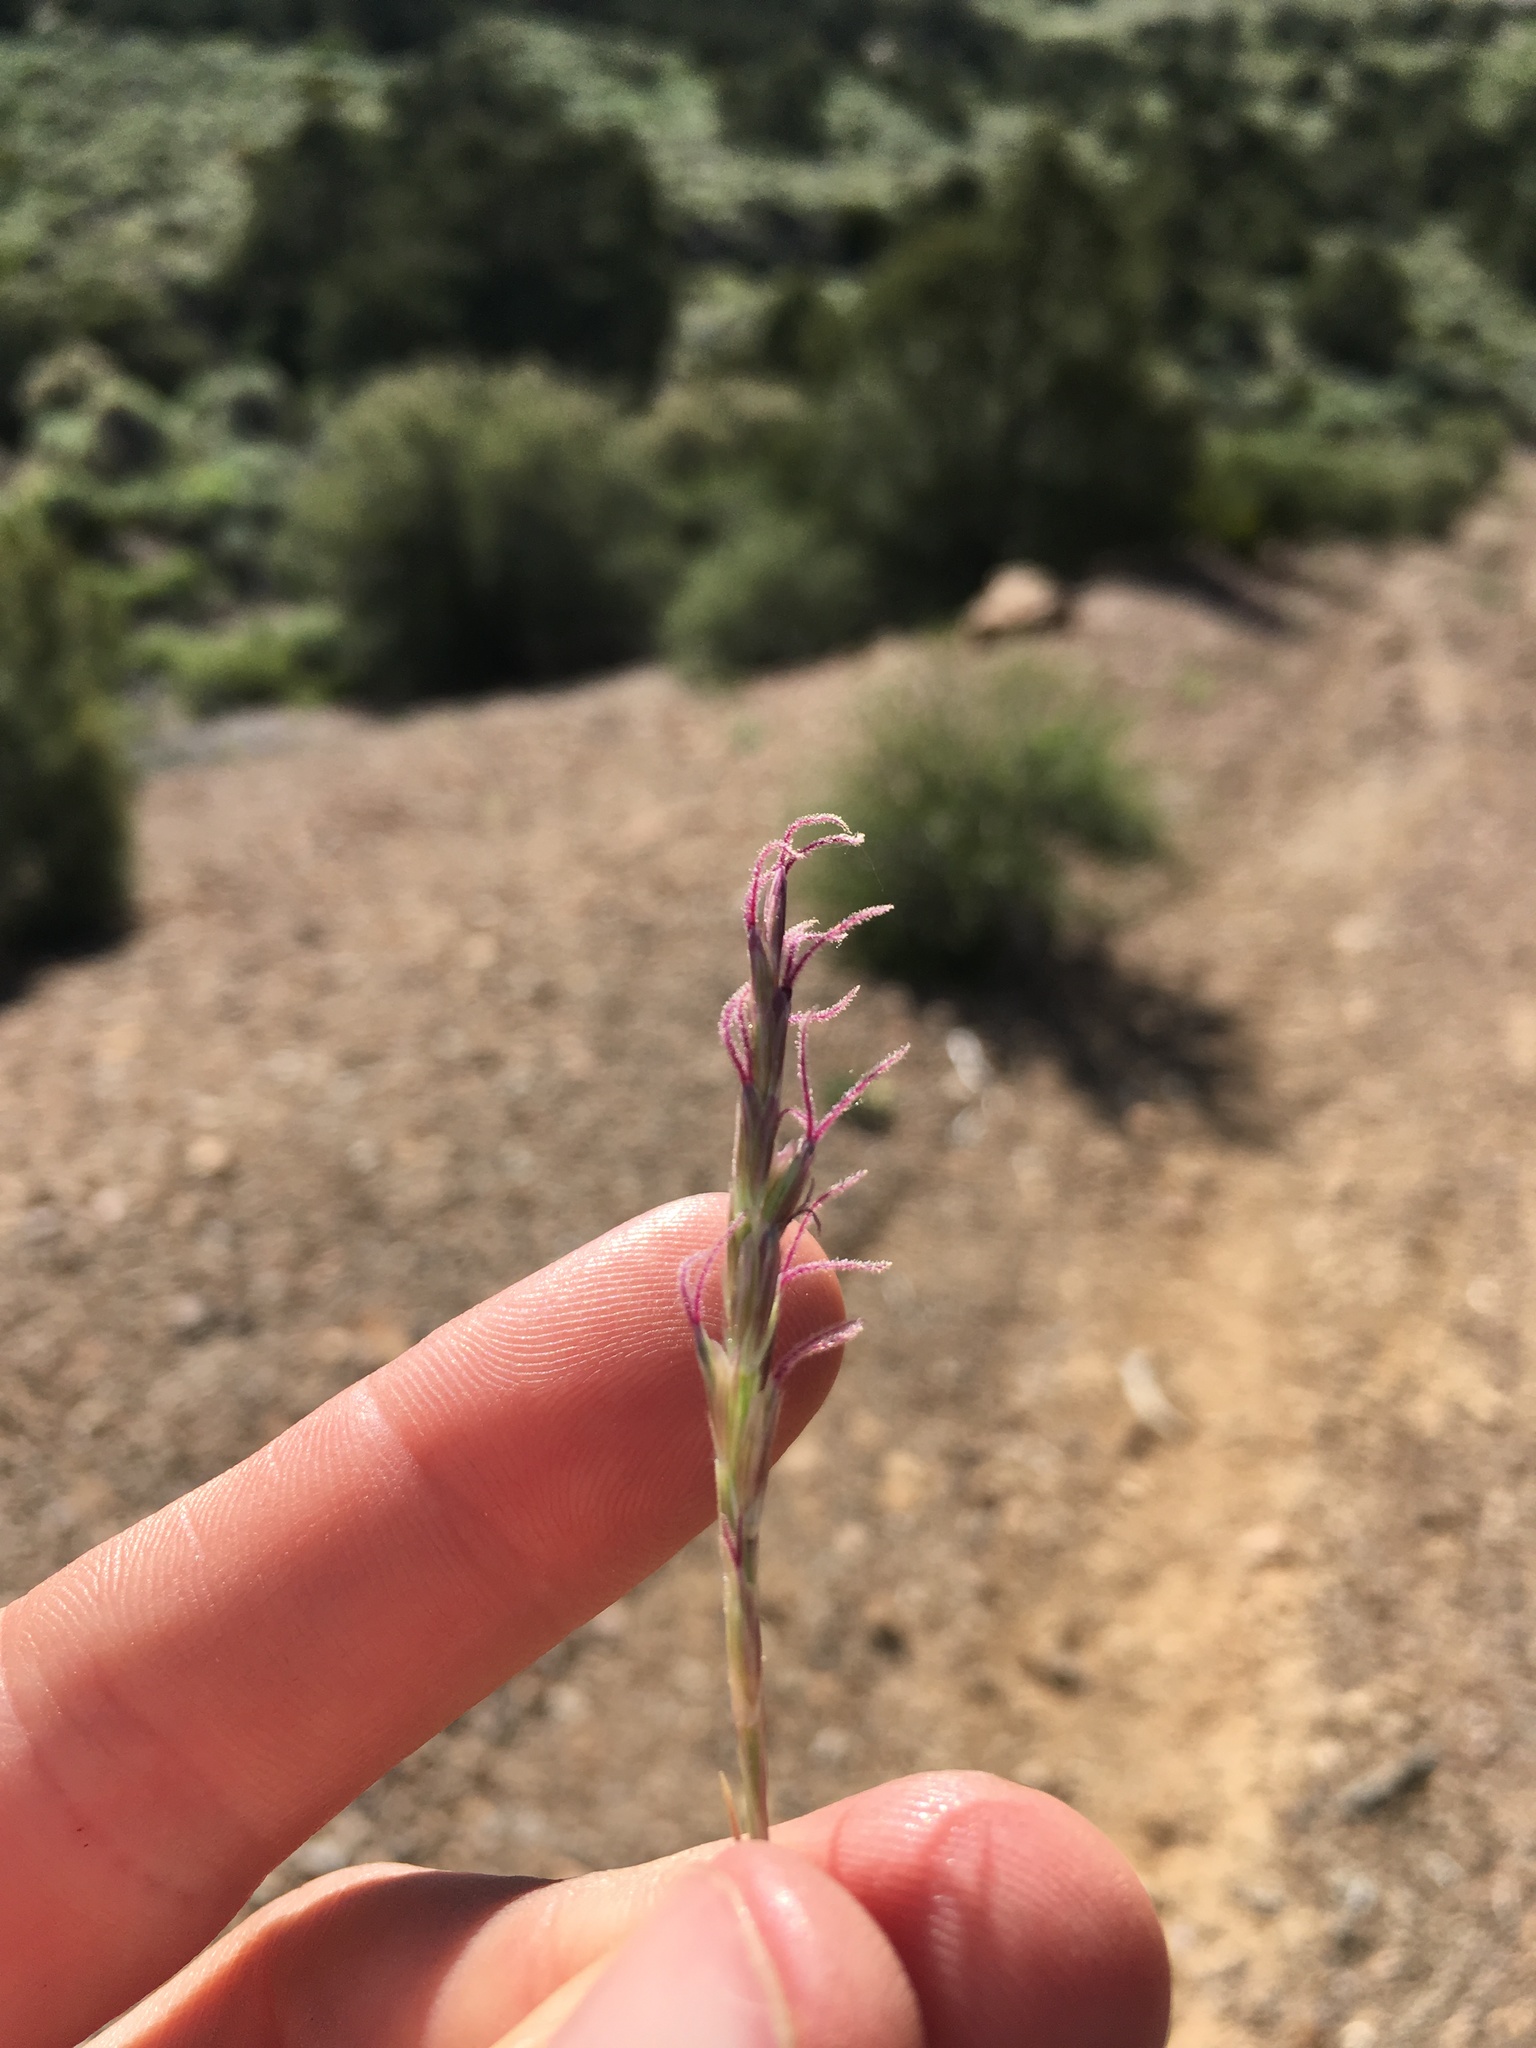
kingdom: Plantae
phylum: Tracheophyta
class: Liliopsida
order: Poales
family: Poaceae
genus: Hilaria
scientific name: Hilaria jamesii
